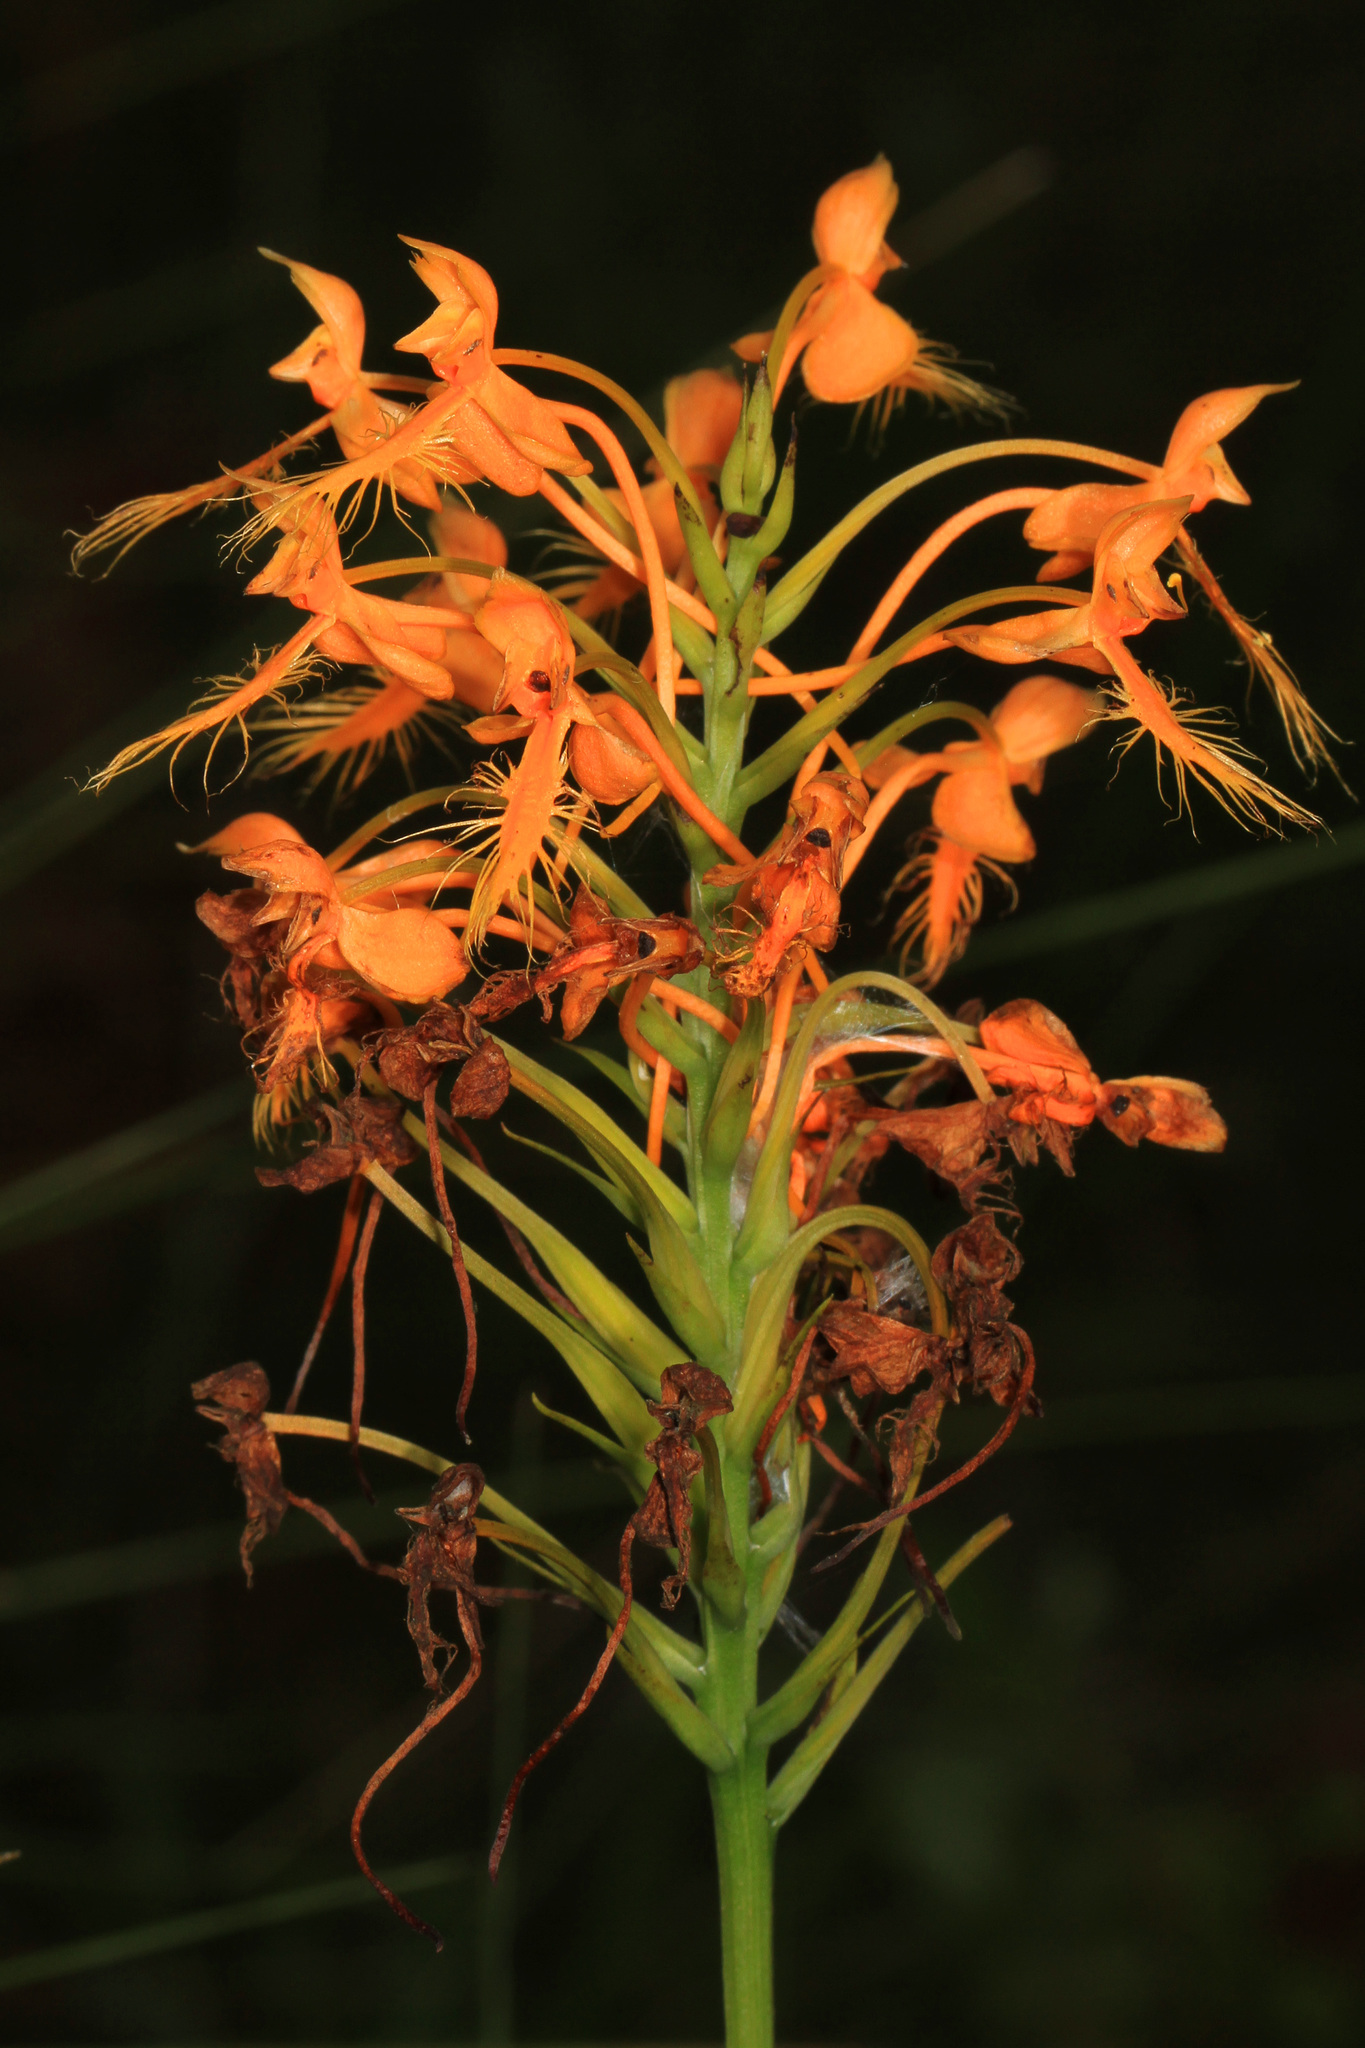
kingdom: Plantae
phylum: Tracheophyta
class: Liliopsida
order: Asparagales
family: Orchidaceae
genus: Platanthera
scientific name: Platanthera ciliaris
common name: Yellow fringed orchid
